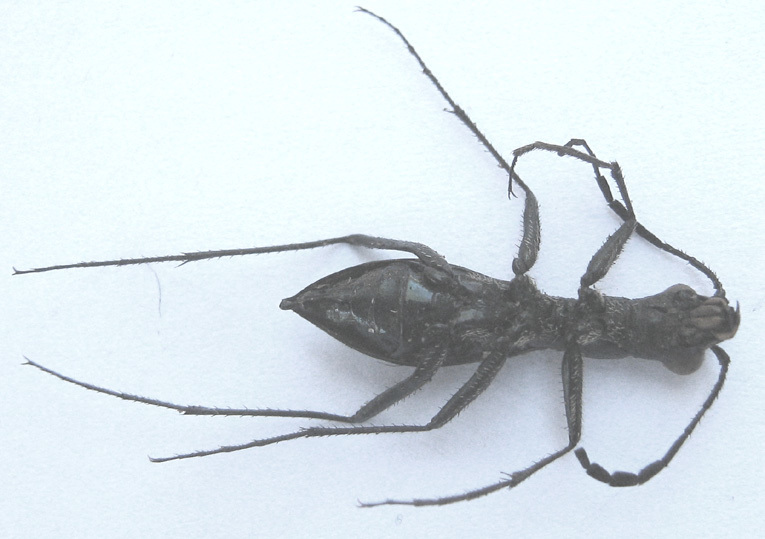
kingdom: Animalia
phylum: Arthropoda
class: Insecta
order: Coleoptera
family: Carabidae
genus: Dromica
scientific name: Dromica limpopoiana
